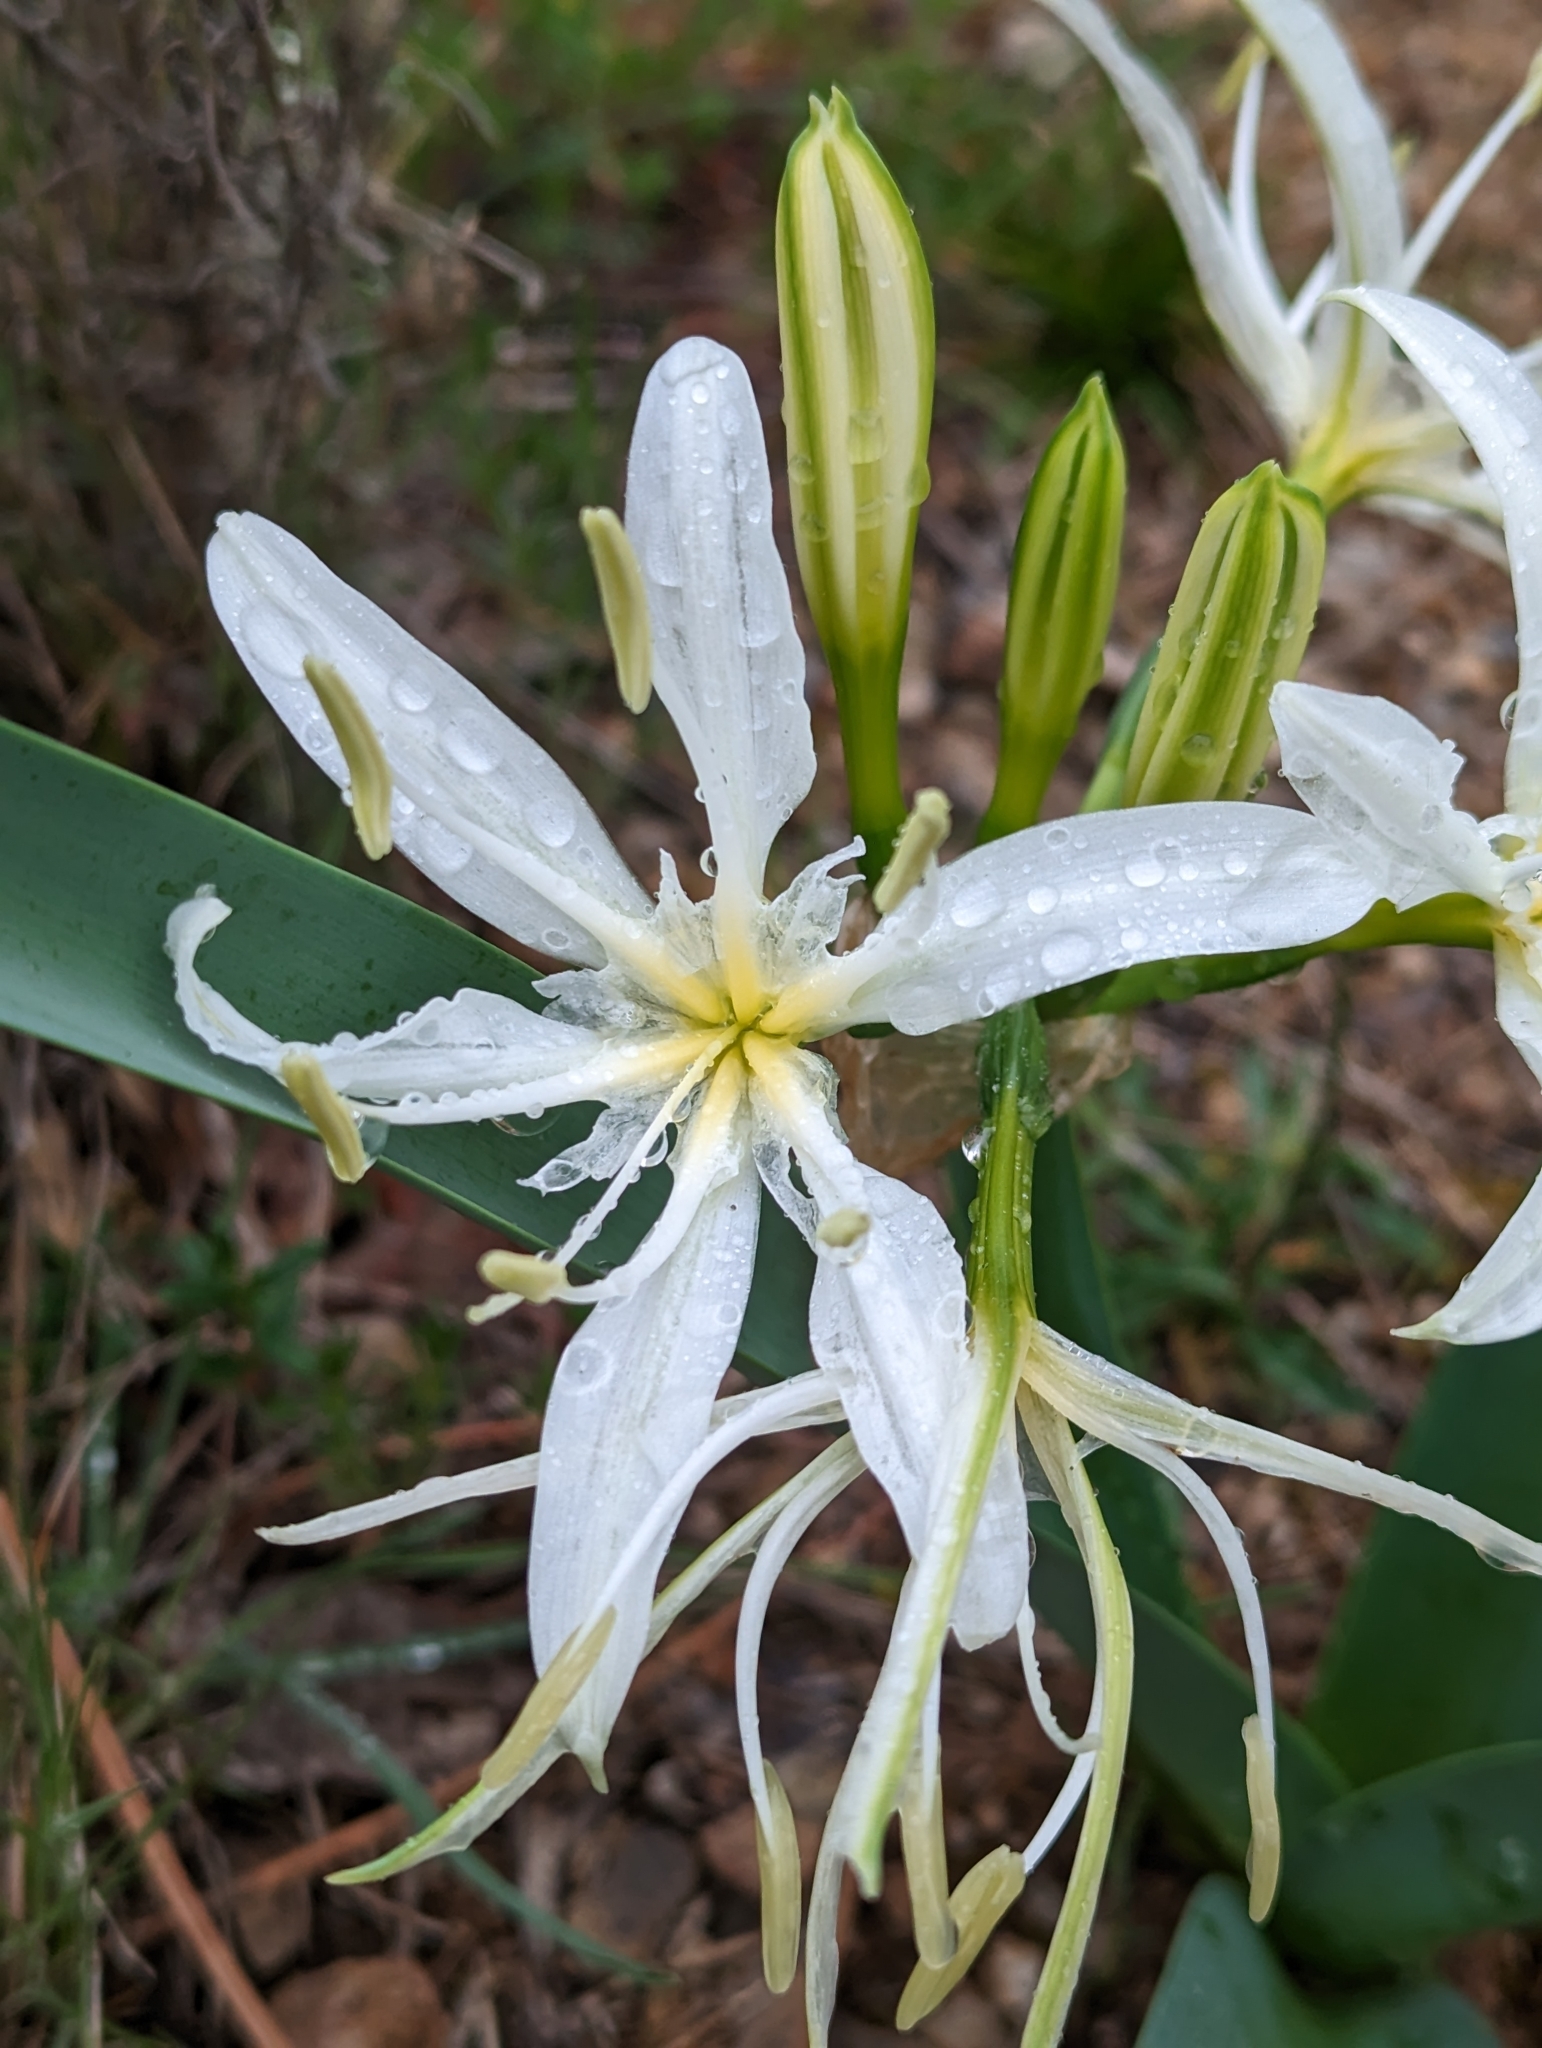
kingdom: Plantae
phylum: Tracheophyta
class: Liliopsida
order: Asparagales
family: Amaryllidaceae
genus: Pancratium
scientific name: Pancratium illyricum
